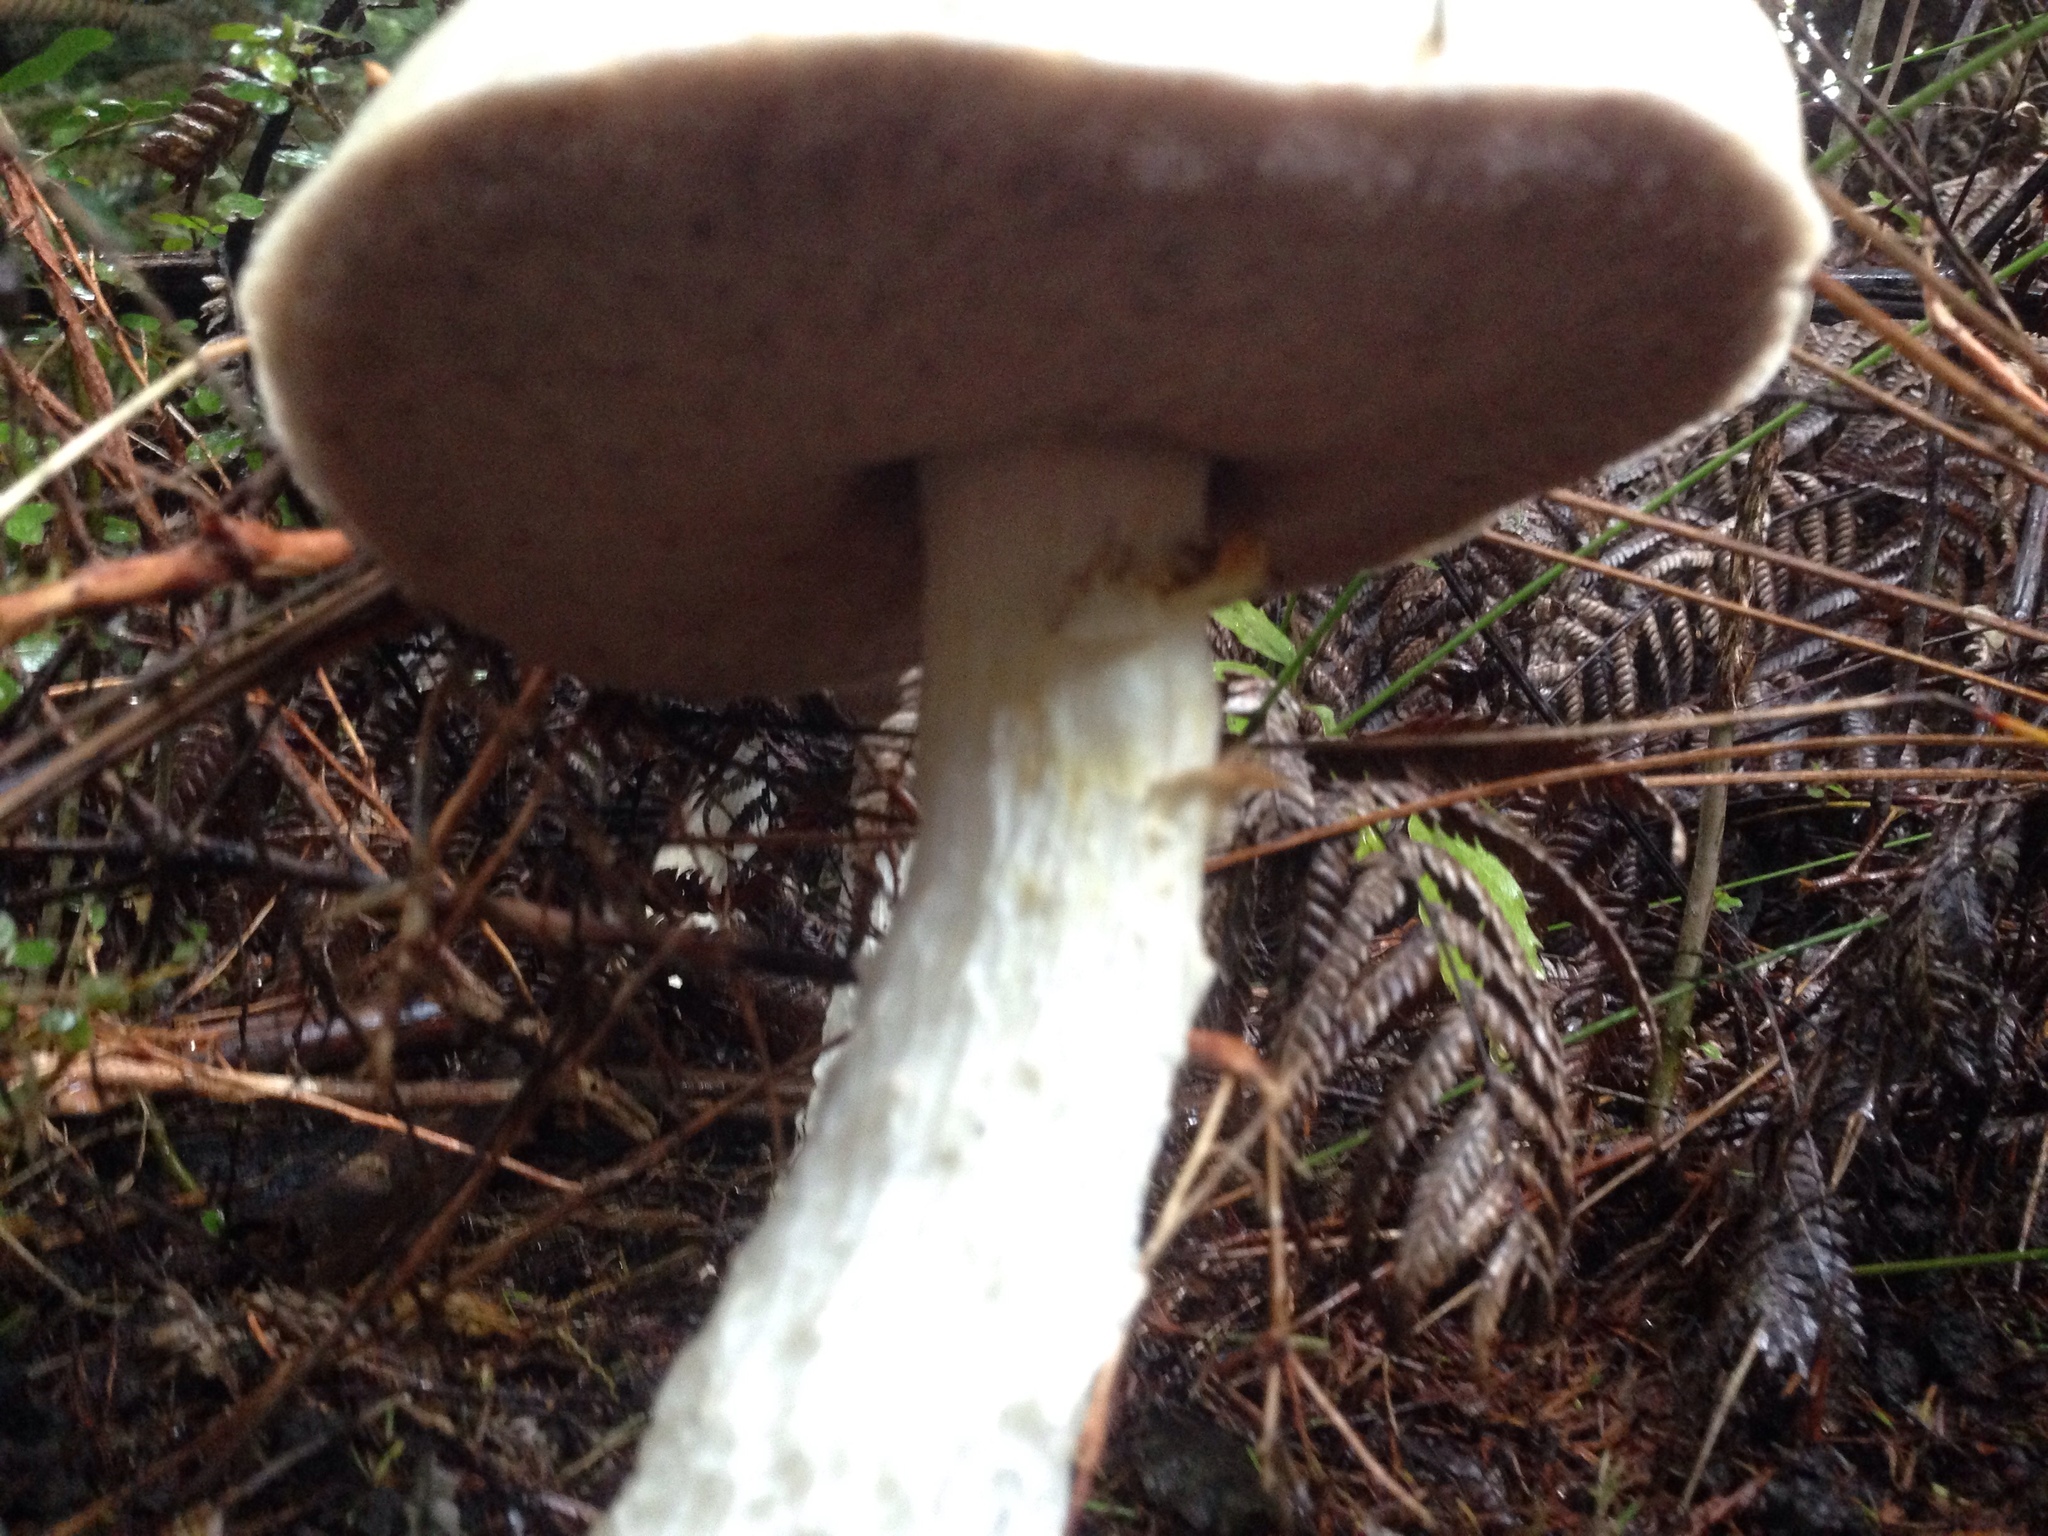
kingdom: Fungi
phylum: Basidiomycota
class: Agaricomycetes
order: Boletales
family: Boletaceae
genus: Fistulinella
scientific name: Fistulinella nivea
